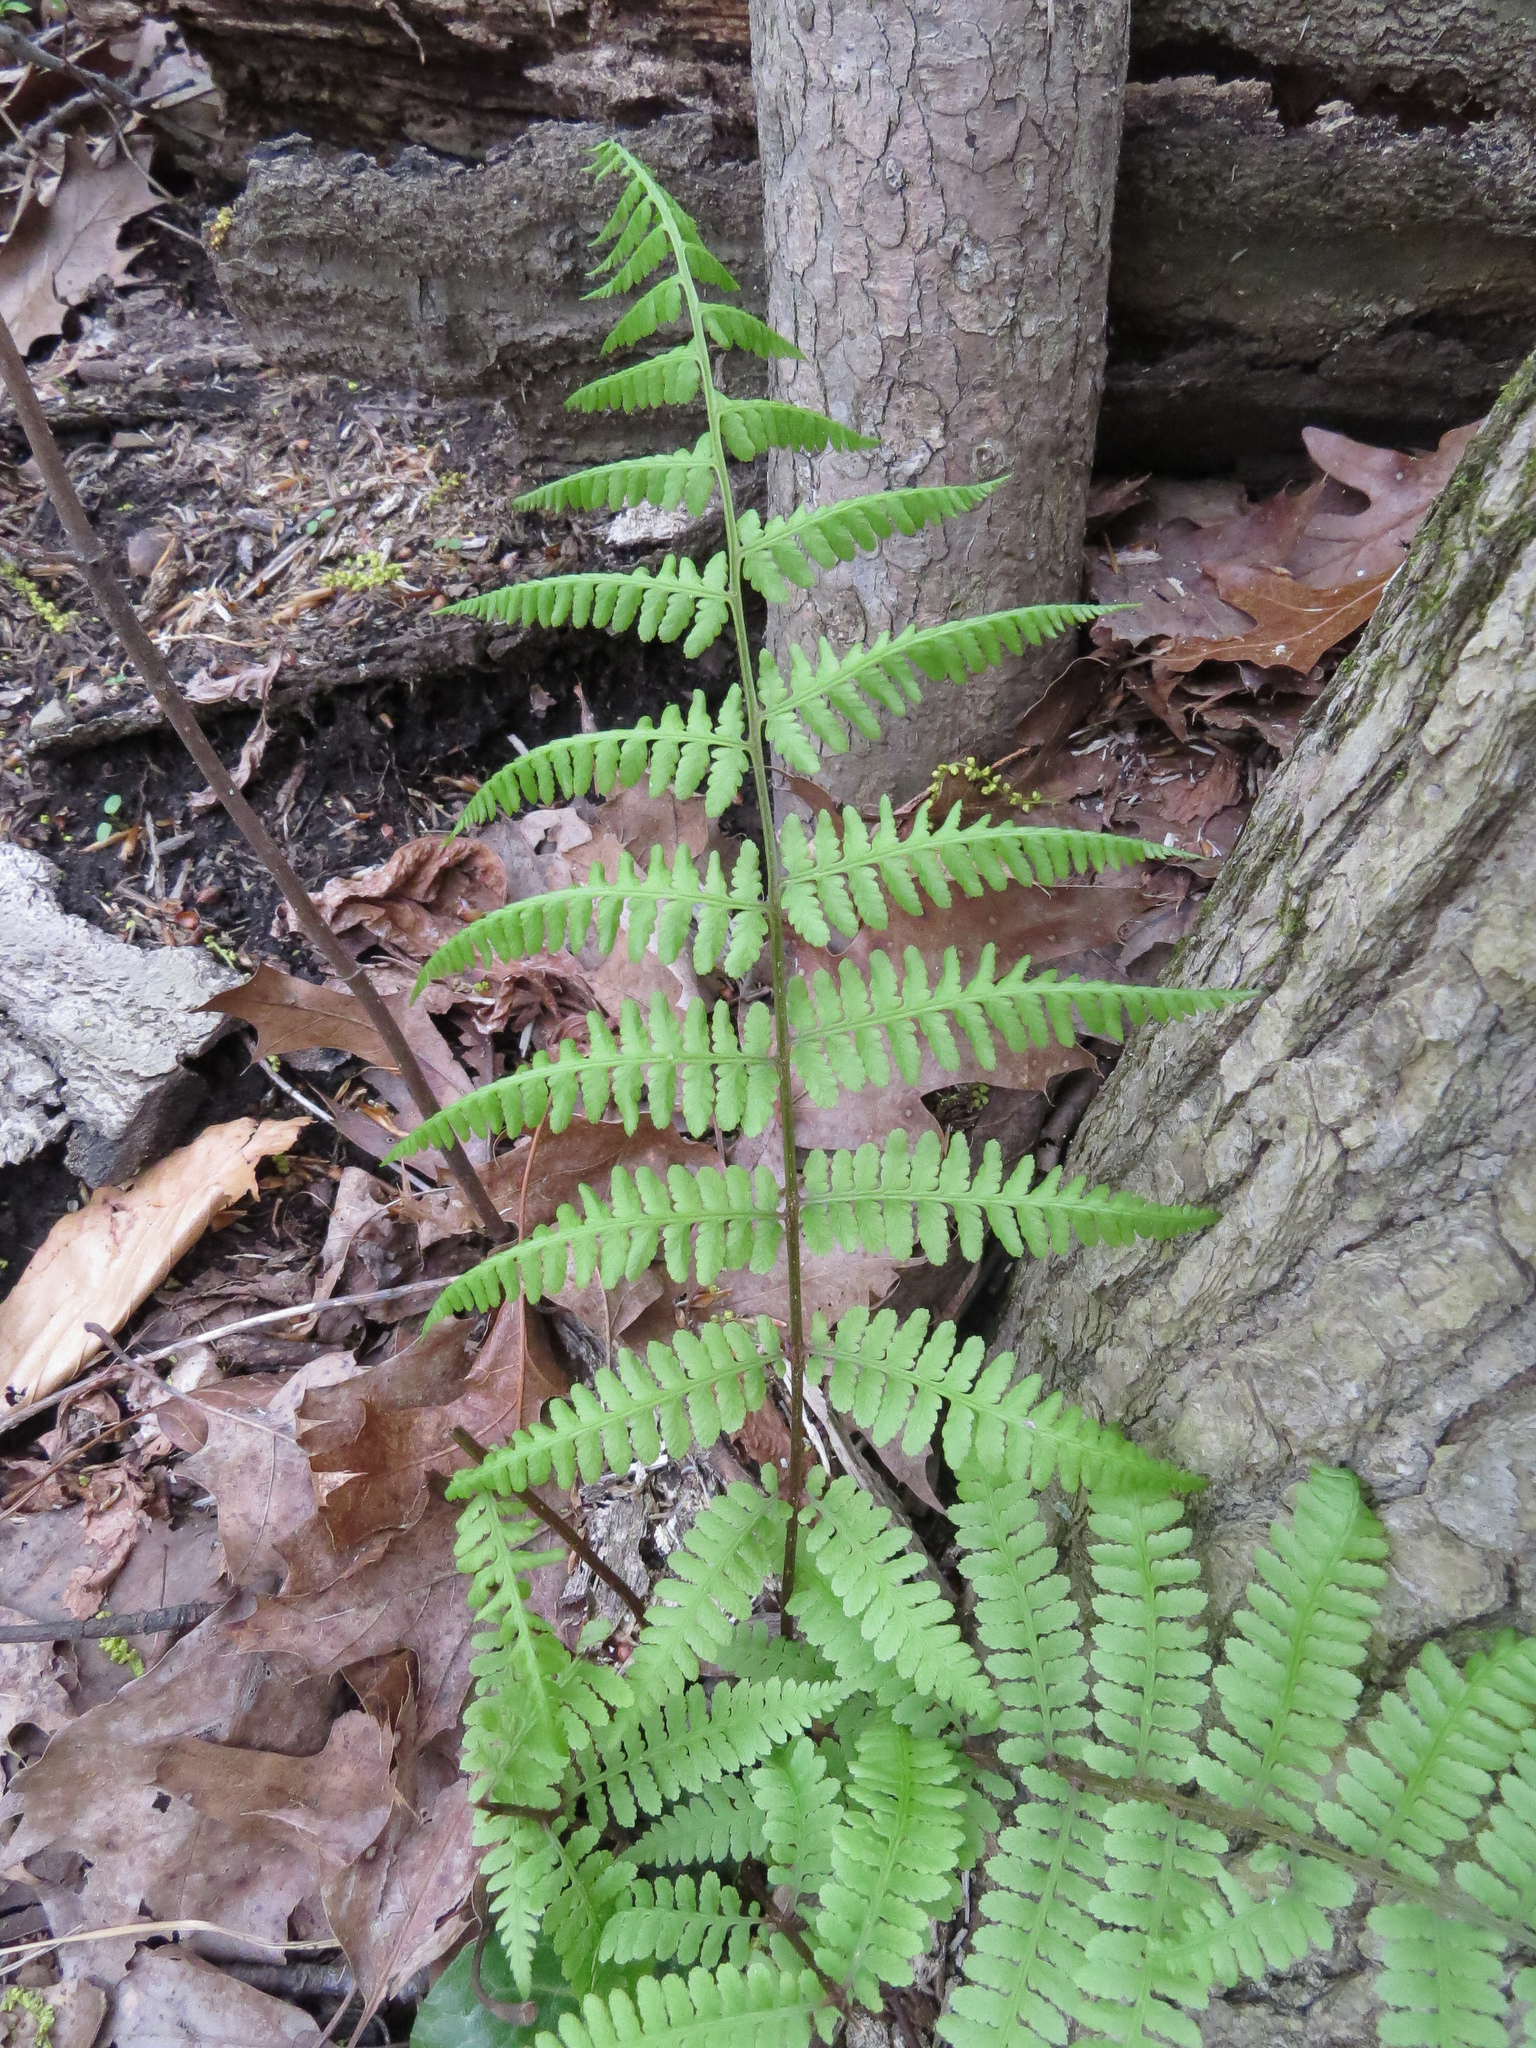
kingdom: Plantae
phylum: Tracheophyta
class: Polypodiopsida
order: Polypodiales
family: Athyriaceae
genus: Athyrium
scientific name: Athyrium angustum
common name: Northern lady fern
